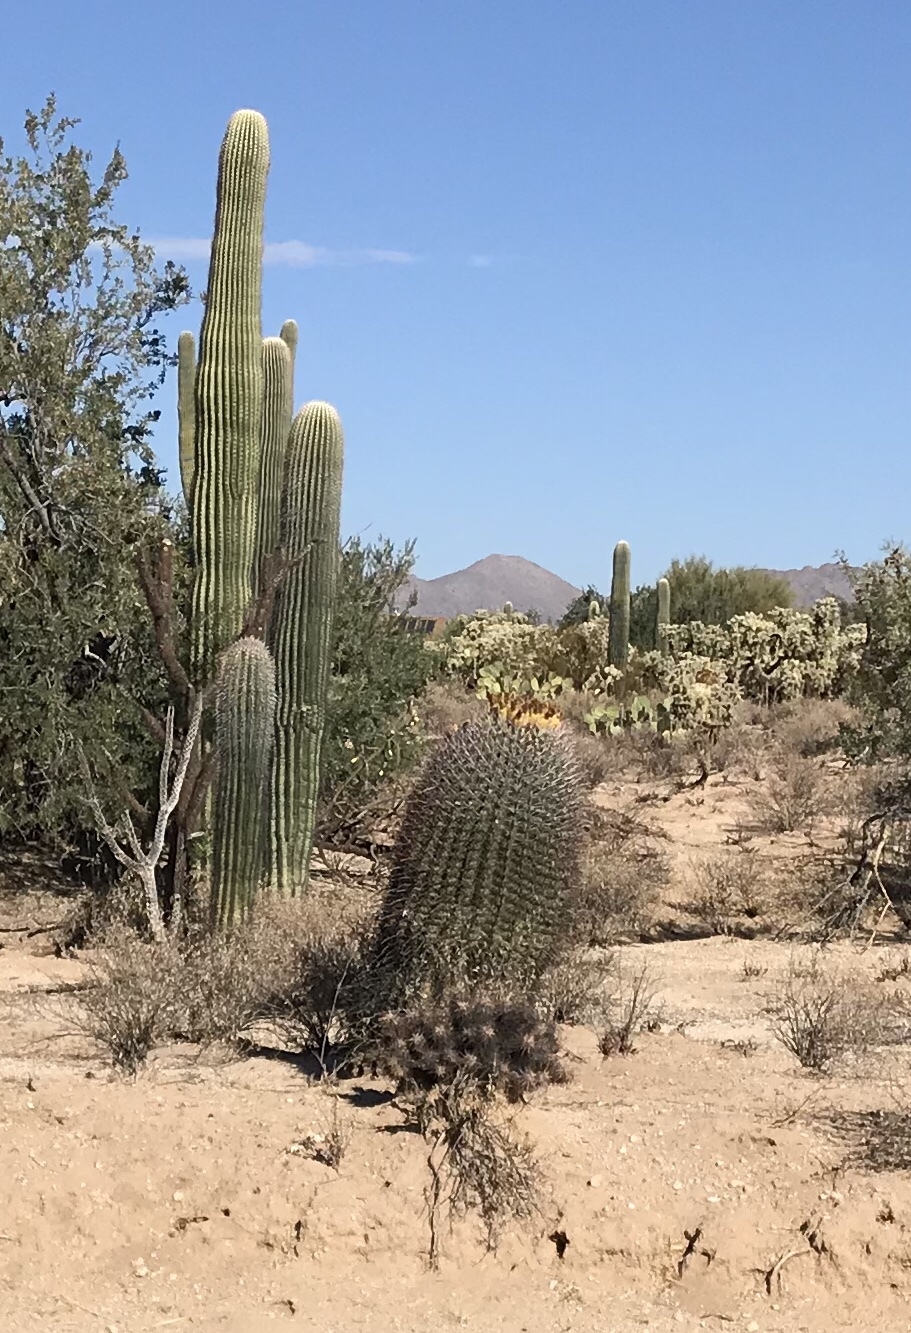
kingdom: Plantae
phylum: Tracheophyta
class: Magnoliopsida
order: Caryophyllales
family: Cactaceae
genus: Ferocactus
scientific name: Ferocactus wislizeni
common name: Candy barrel cactus
